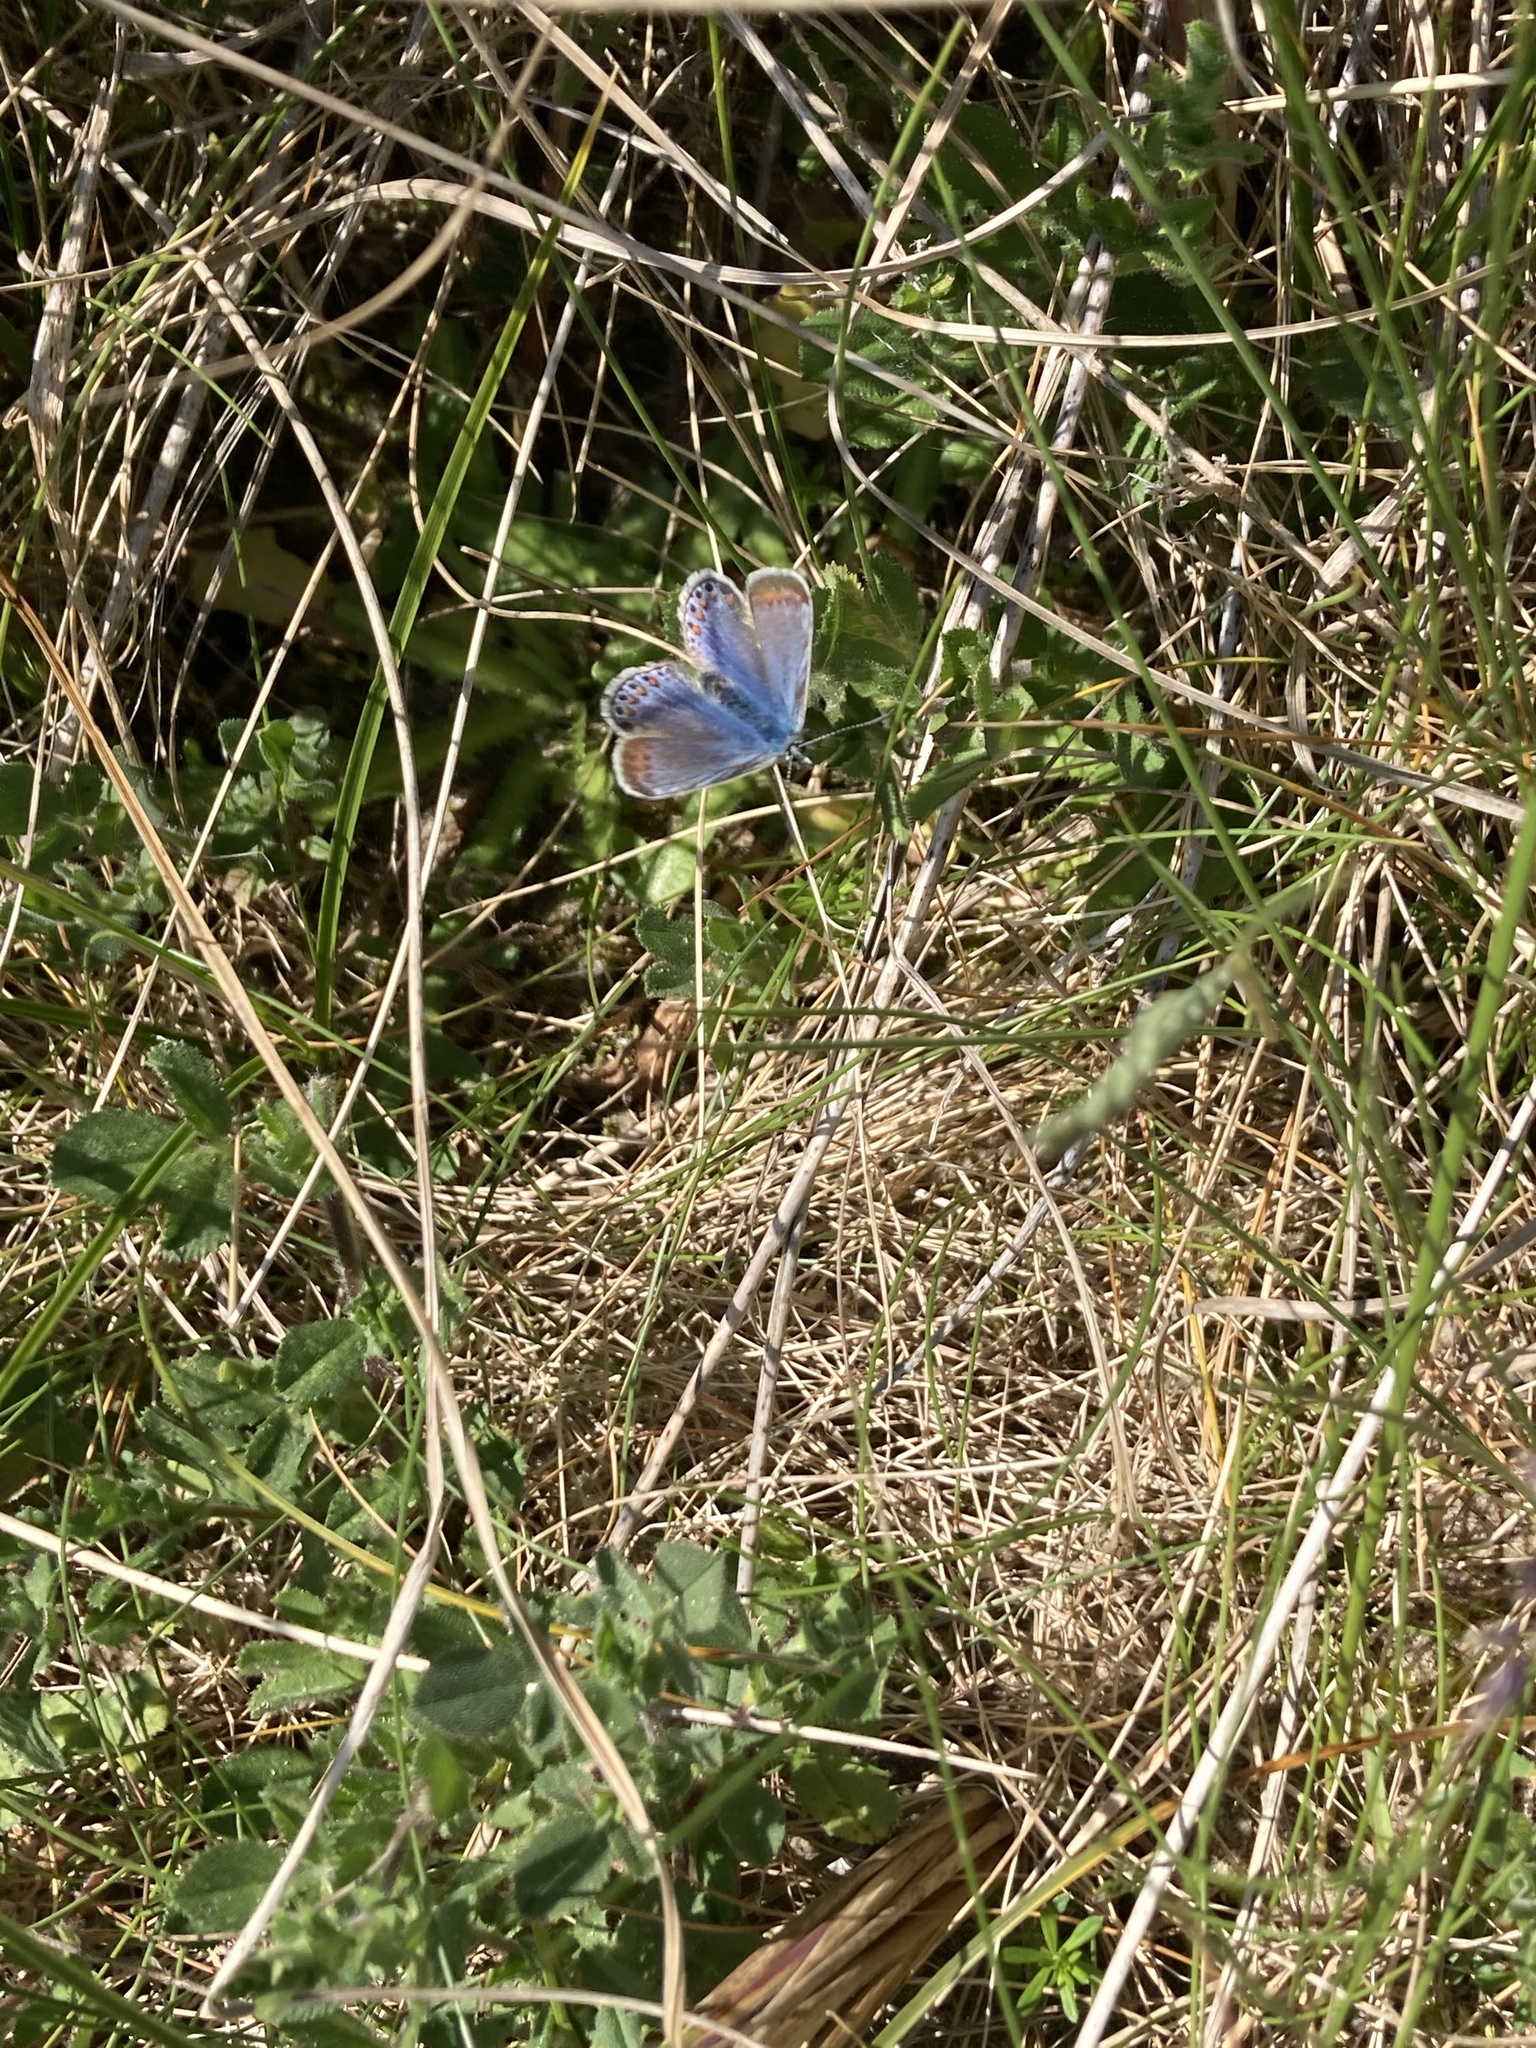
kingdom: Animalia
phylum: Arthropoda
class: Insecta
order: Lepidoptera
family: Lycaenidae
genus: Polyommatus
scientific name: Polyommatus icarus
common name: Common blue
